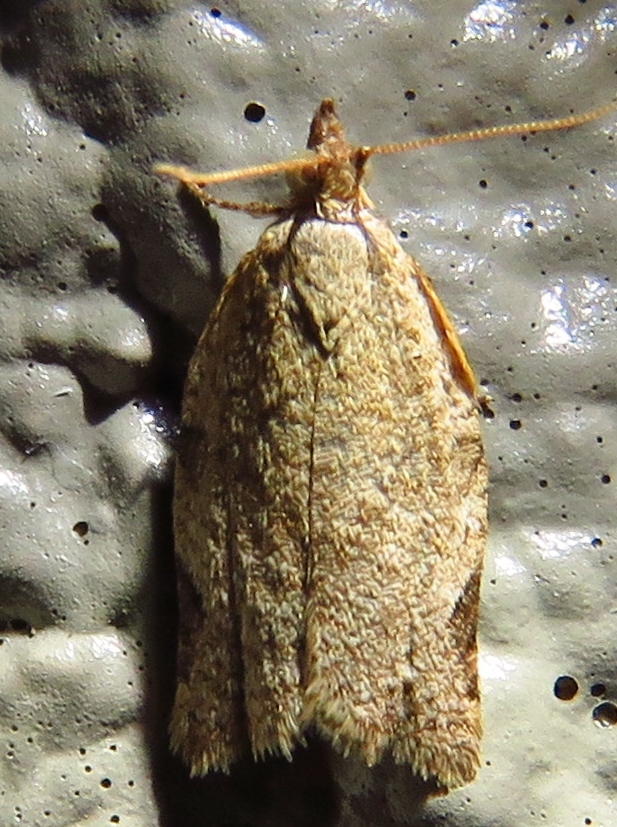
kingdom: Animalia
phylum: Arthropoda
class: Insecta
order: Lepidoptera
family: Tortricidae
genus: Clepsis
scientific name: Clepsis virescana
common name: Greenish apple moth
